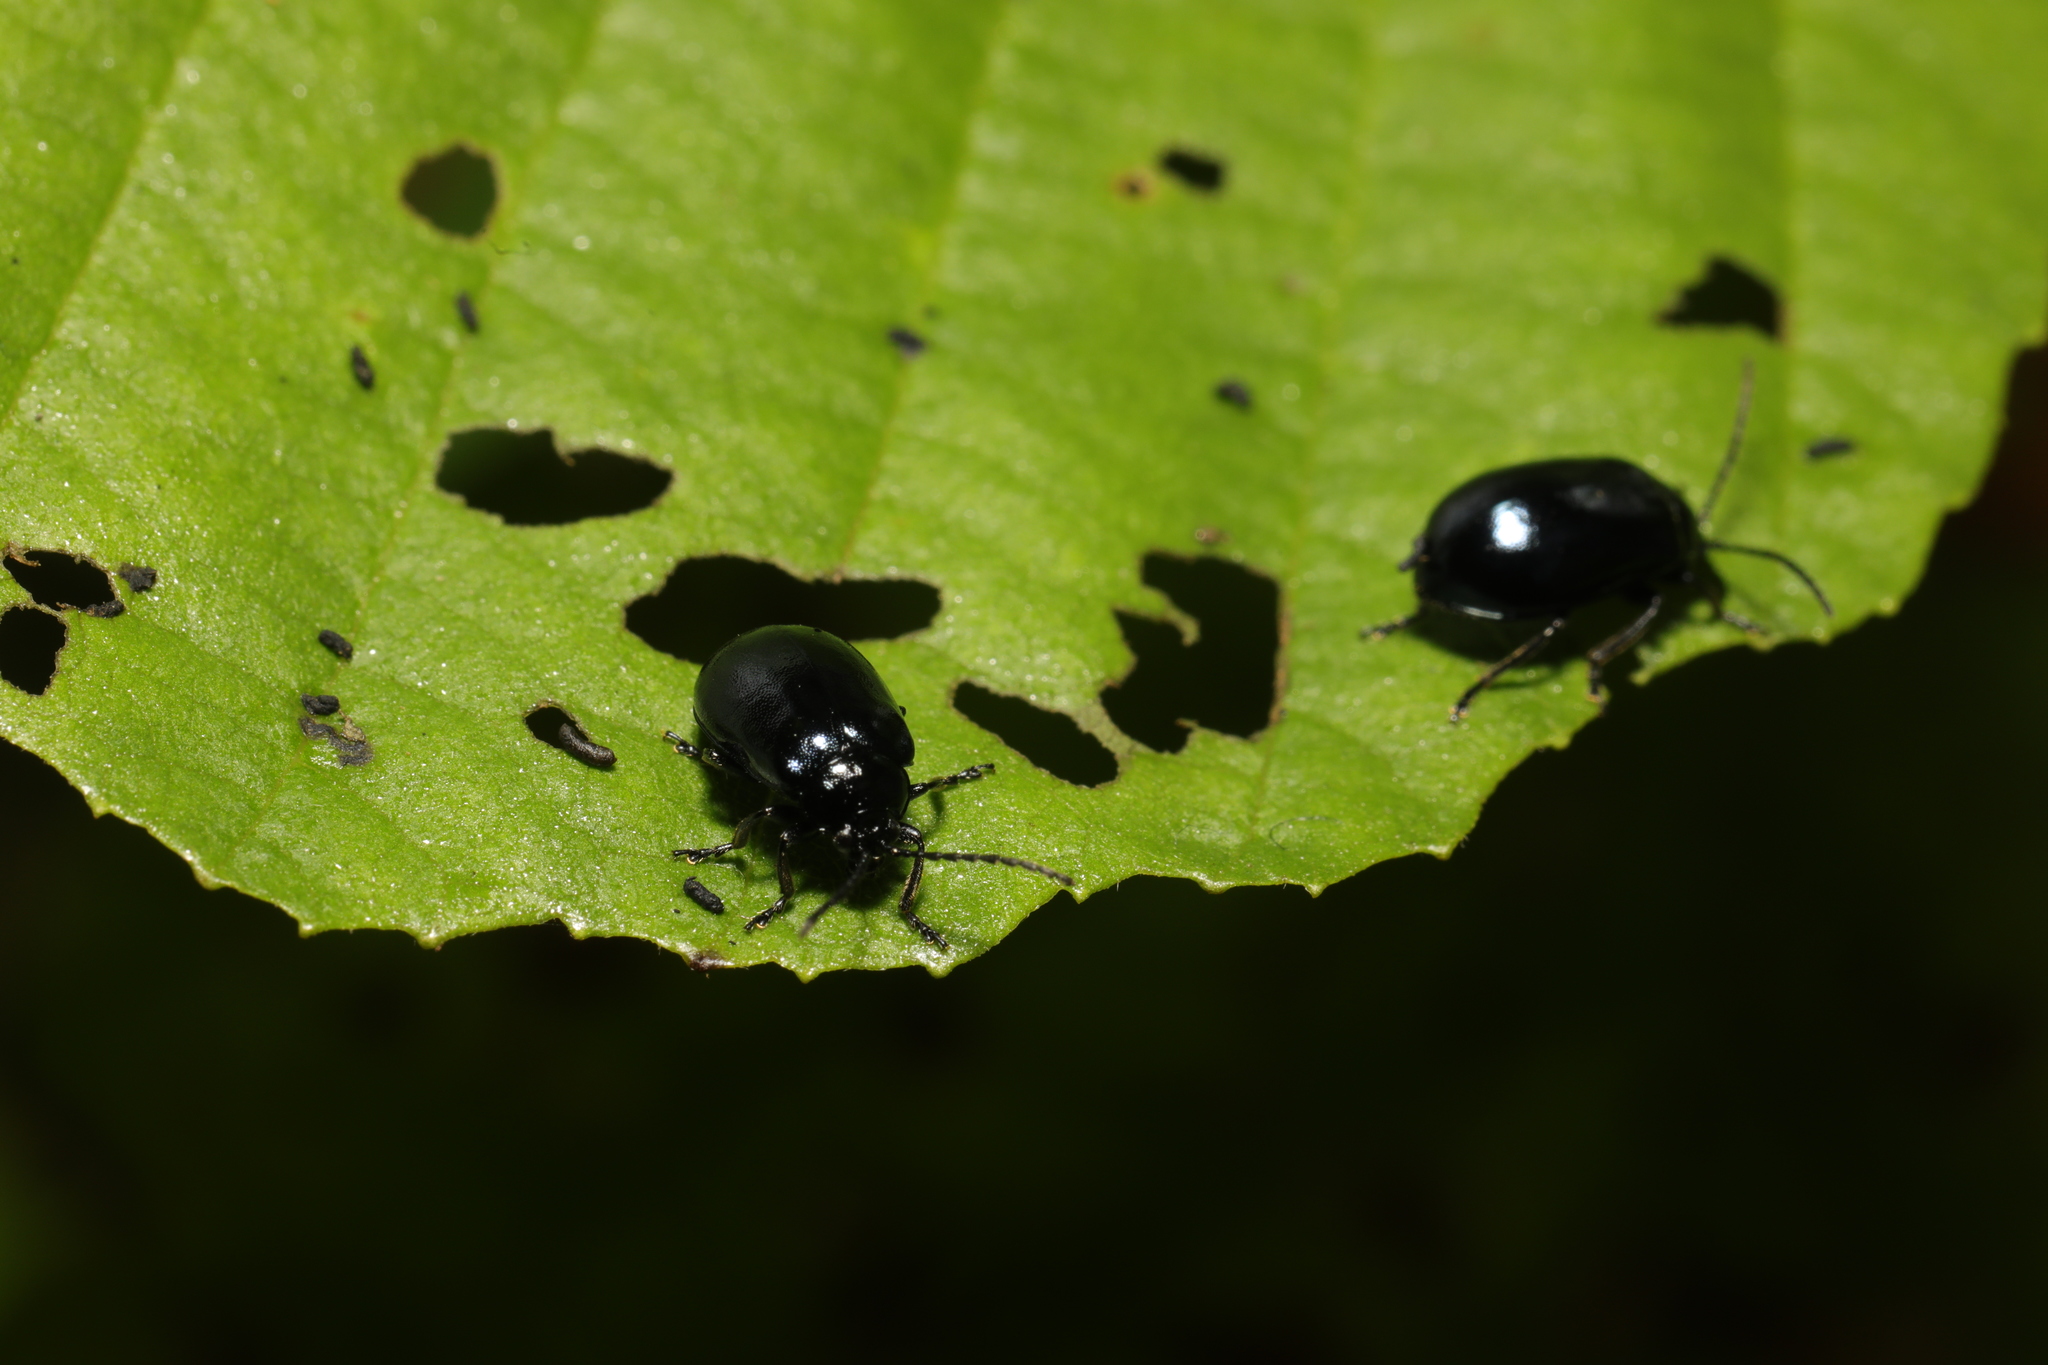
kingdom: Animalia
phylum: Arthropoda
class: Insecta
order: Coleoptera
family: Chrysomelidae
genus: Agelastica
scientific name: Agelastica alni
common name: Alder leaf beetle
